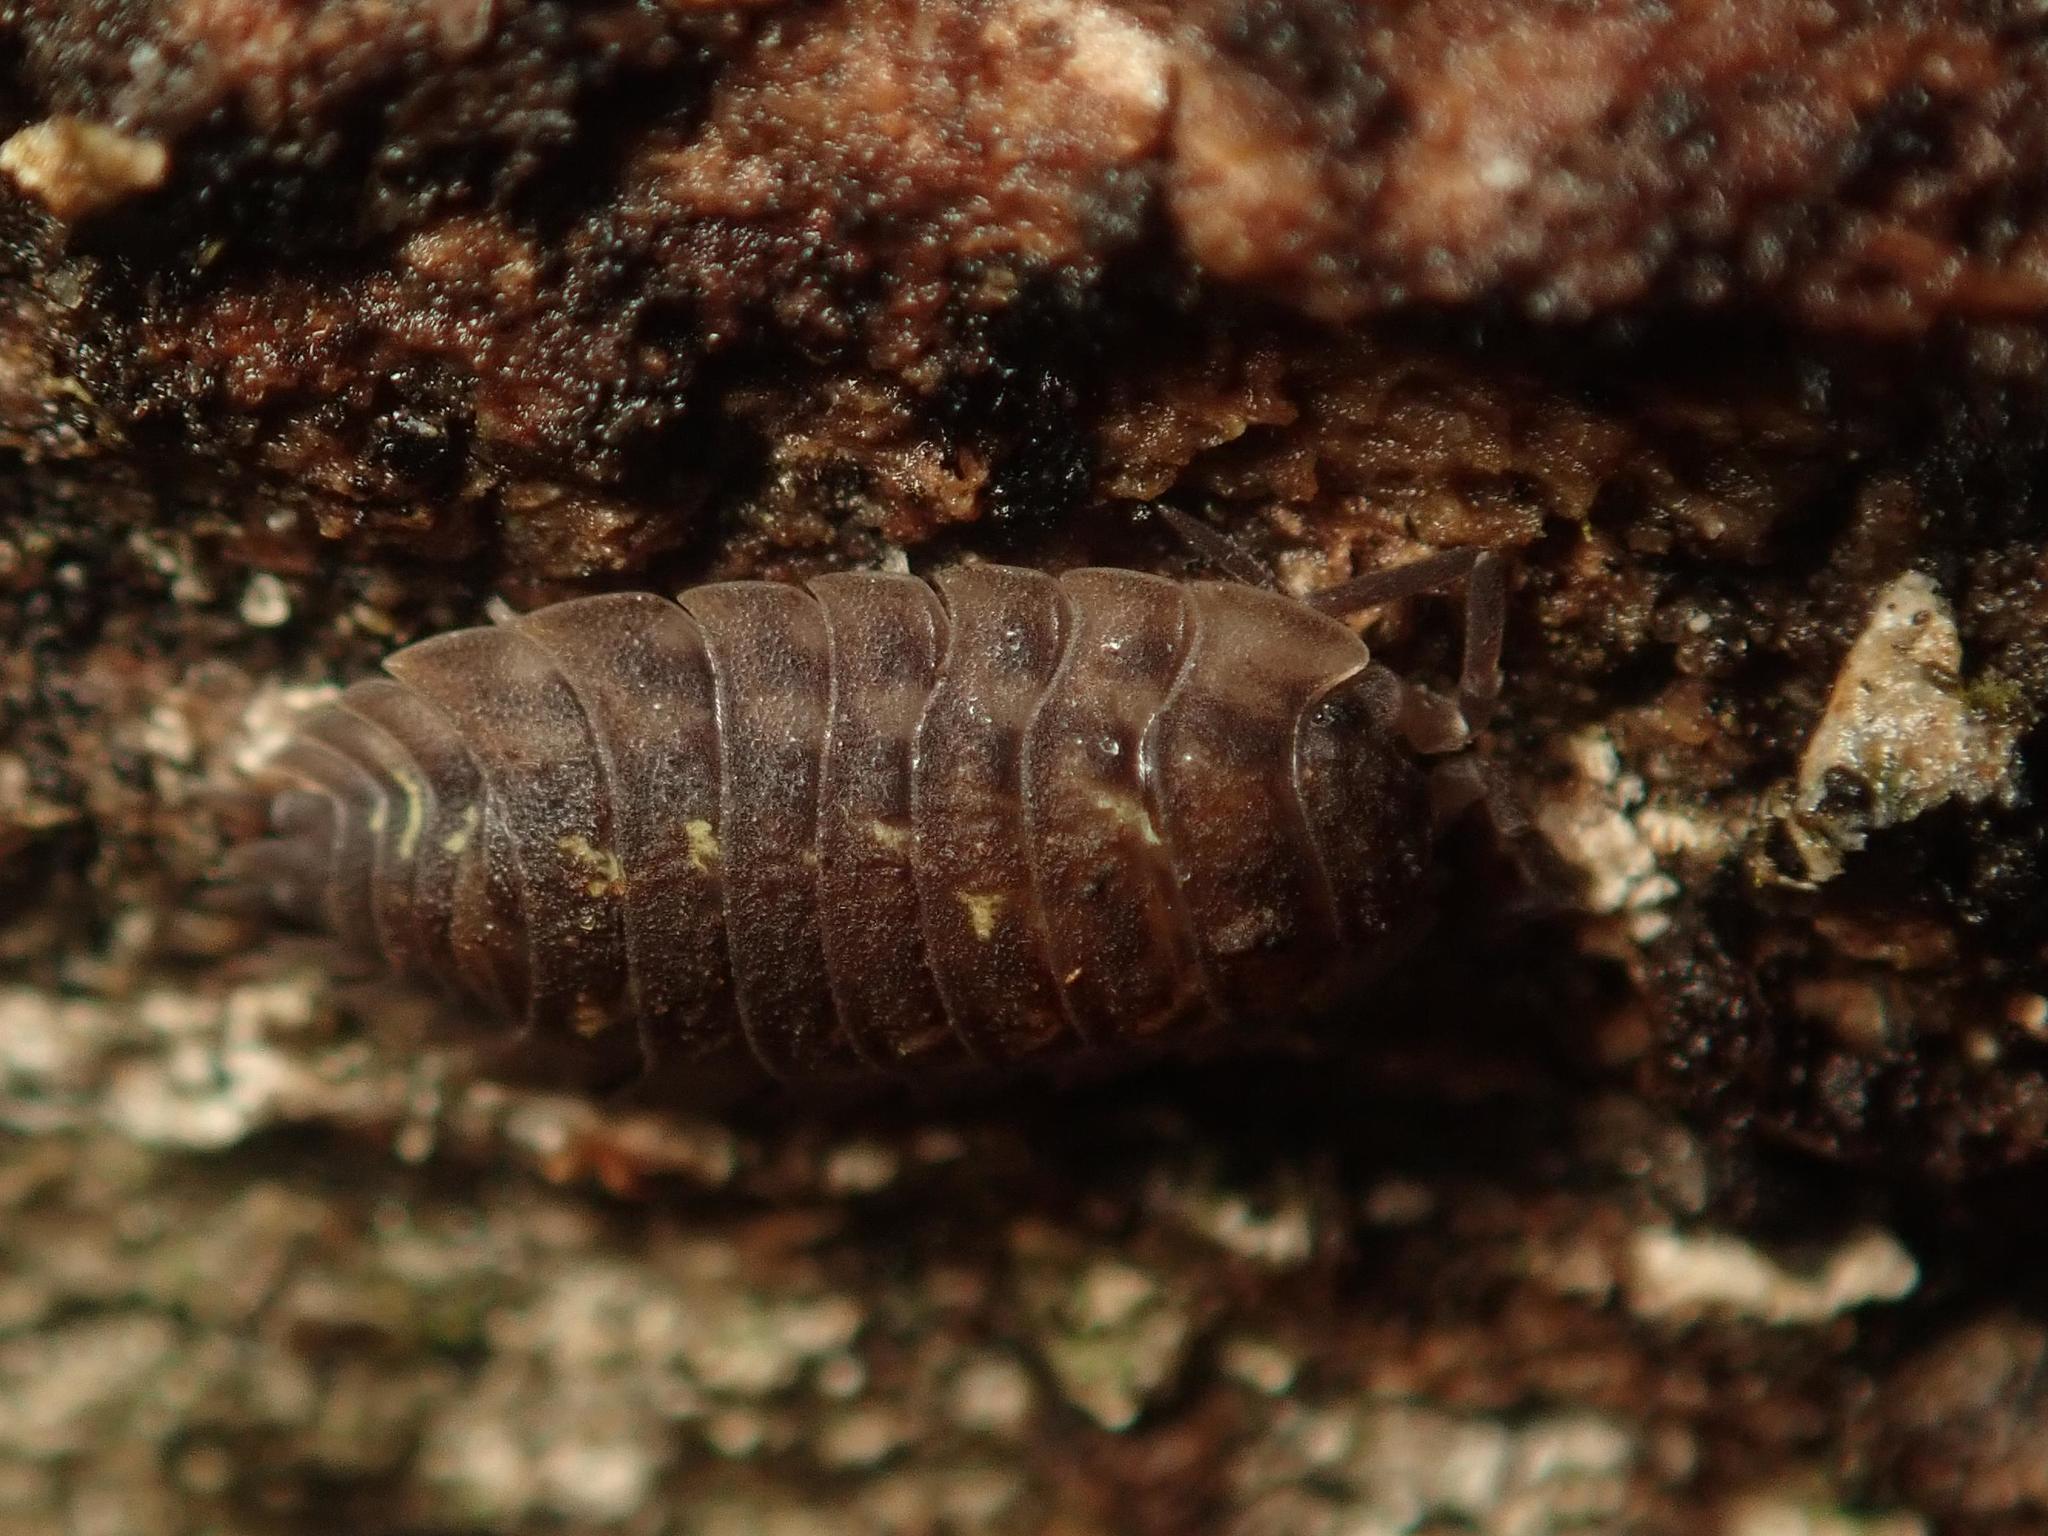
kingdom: Animalia
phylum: Arthropoda
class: Malacostraca
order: Isopoda
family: Oniscidae
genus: Oniscus
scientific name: Oniscus asellus
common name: Common shiny woodlouse
